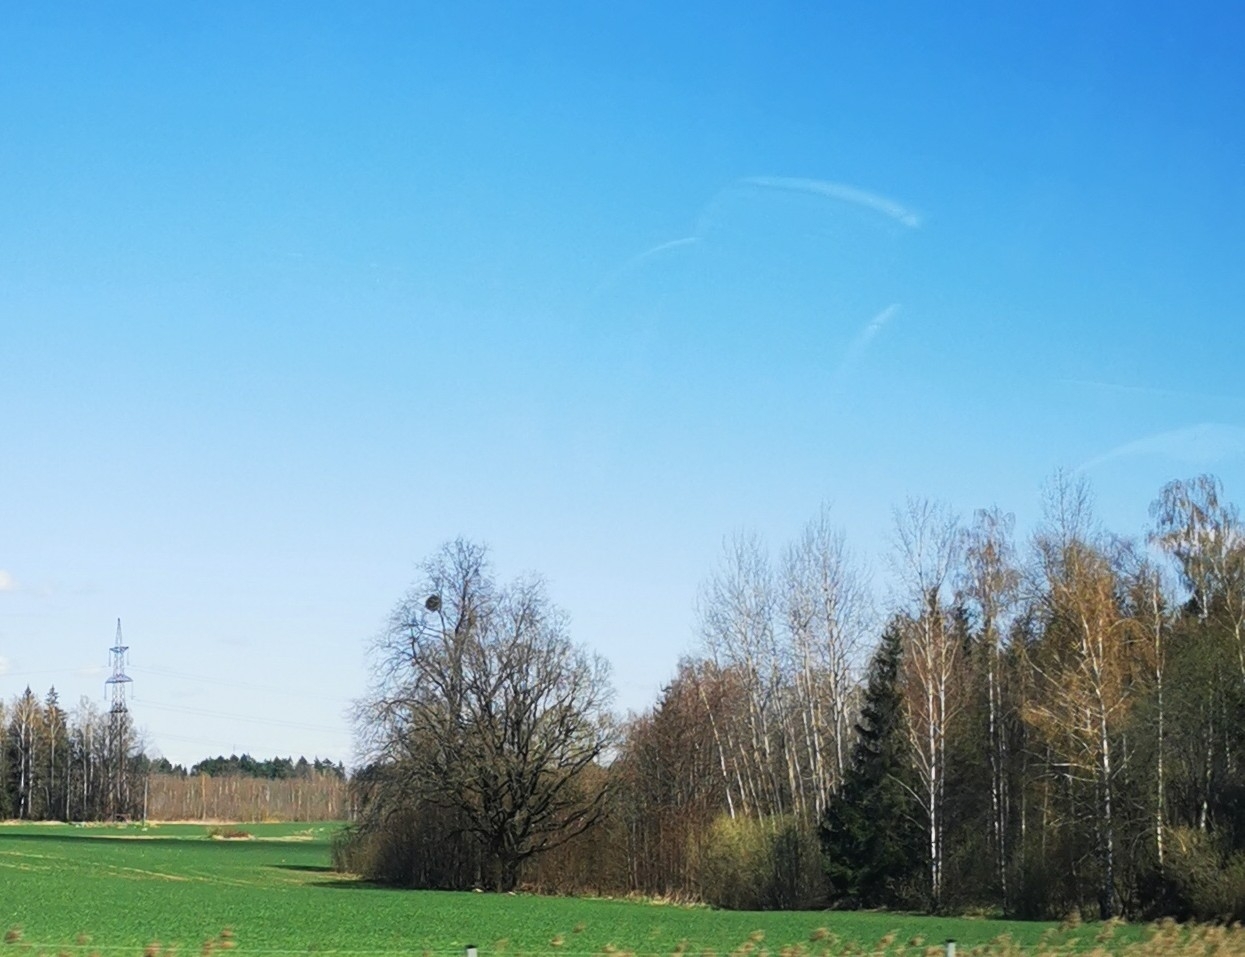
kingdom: Plantae
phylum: Tracheophyta
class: Magnoliopsida
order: Santalales
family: Viscaceae
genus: Viscum
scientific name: Viscum album
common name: Mistletoe
